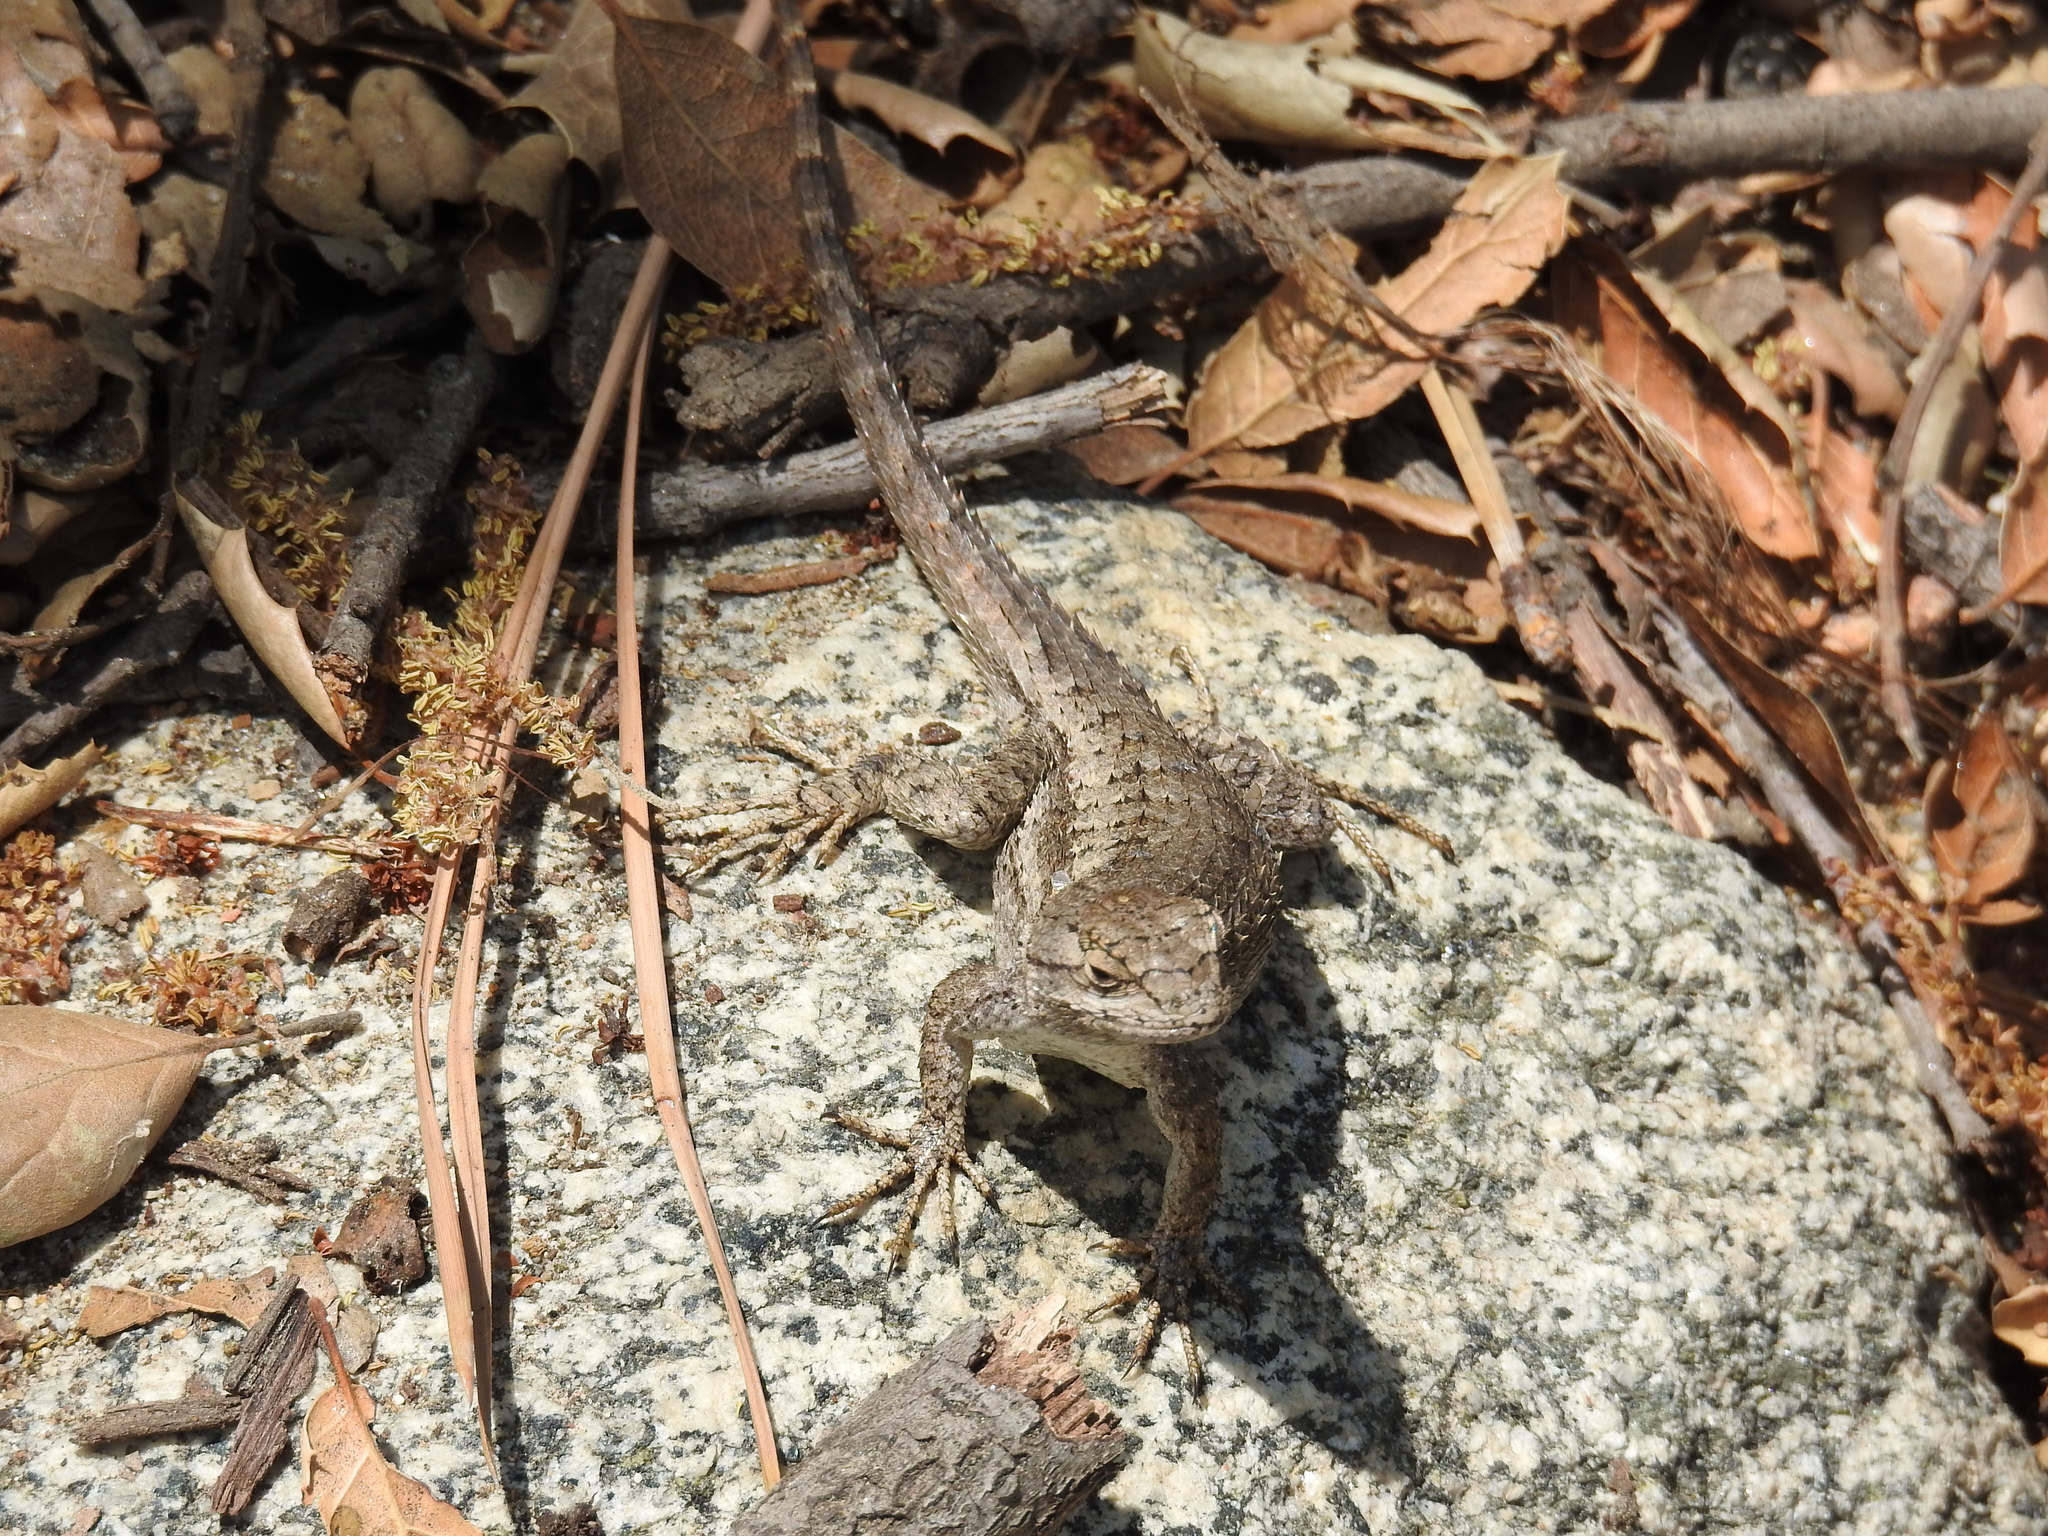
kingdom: Animalia
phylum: Chordata
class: Squamata
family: Phrynosomatidae
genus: Sceloporus
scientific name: Sceloporus occidentalis
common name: Western fence lizard
